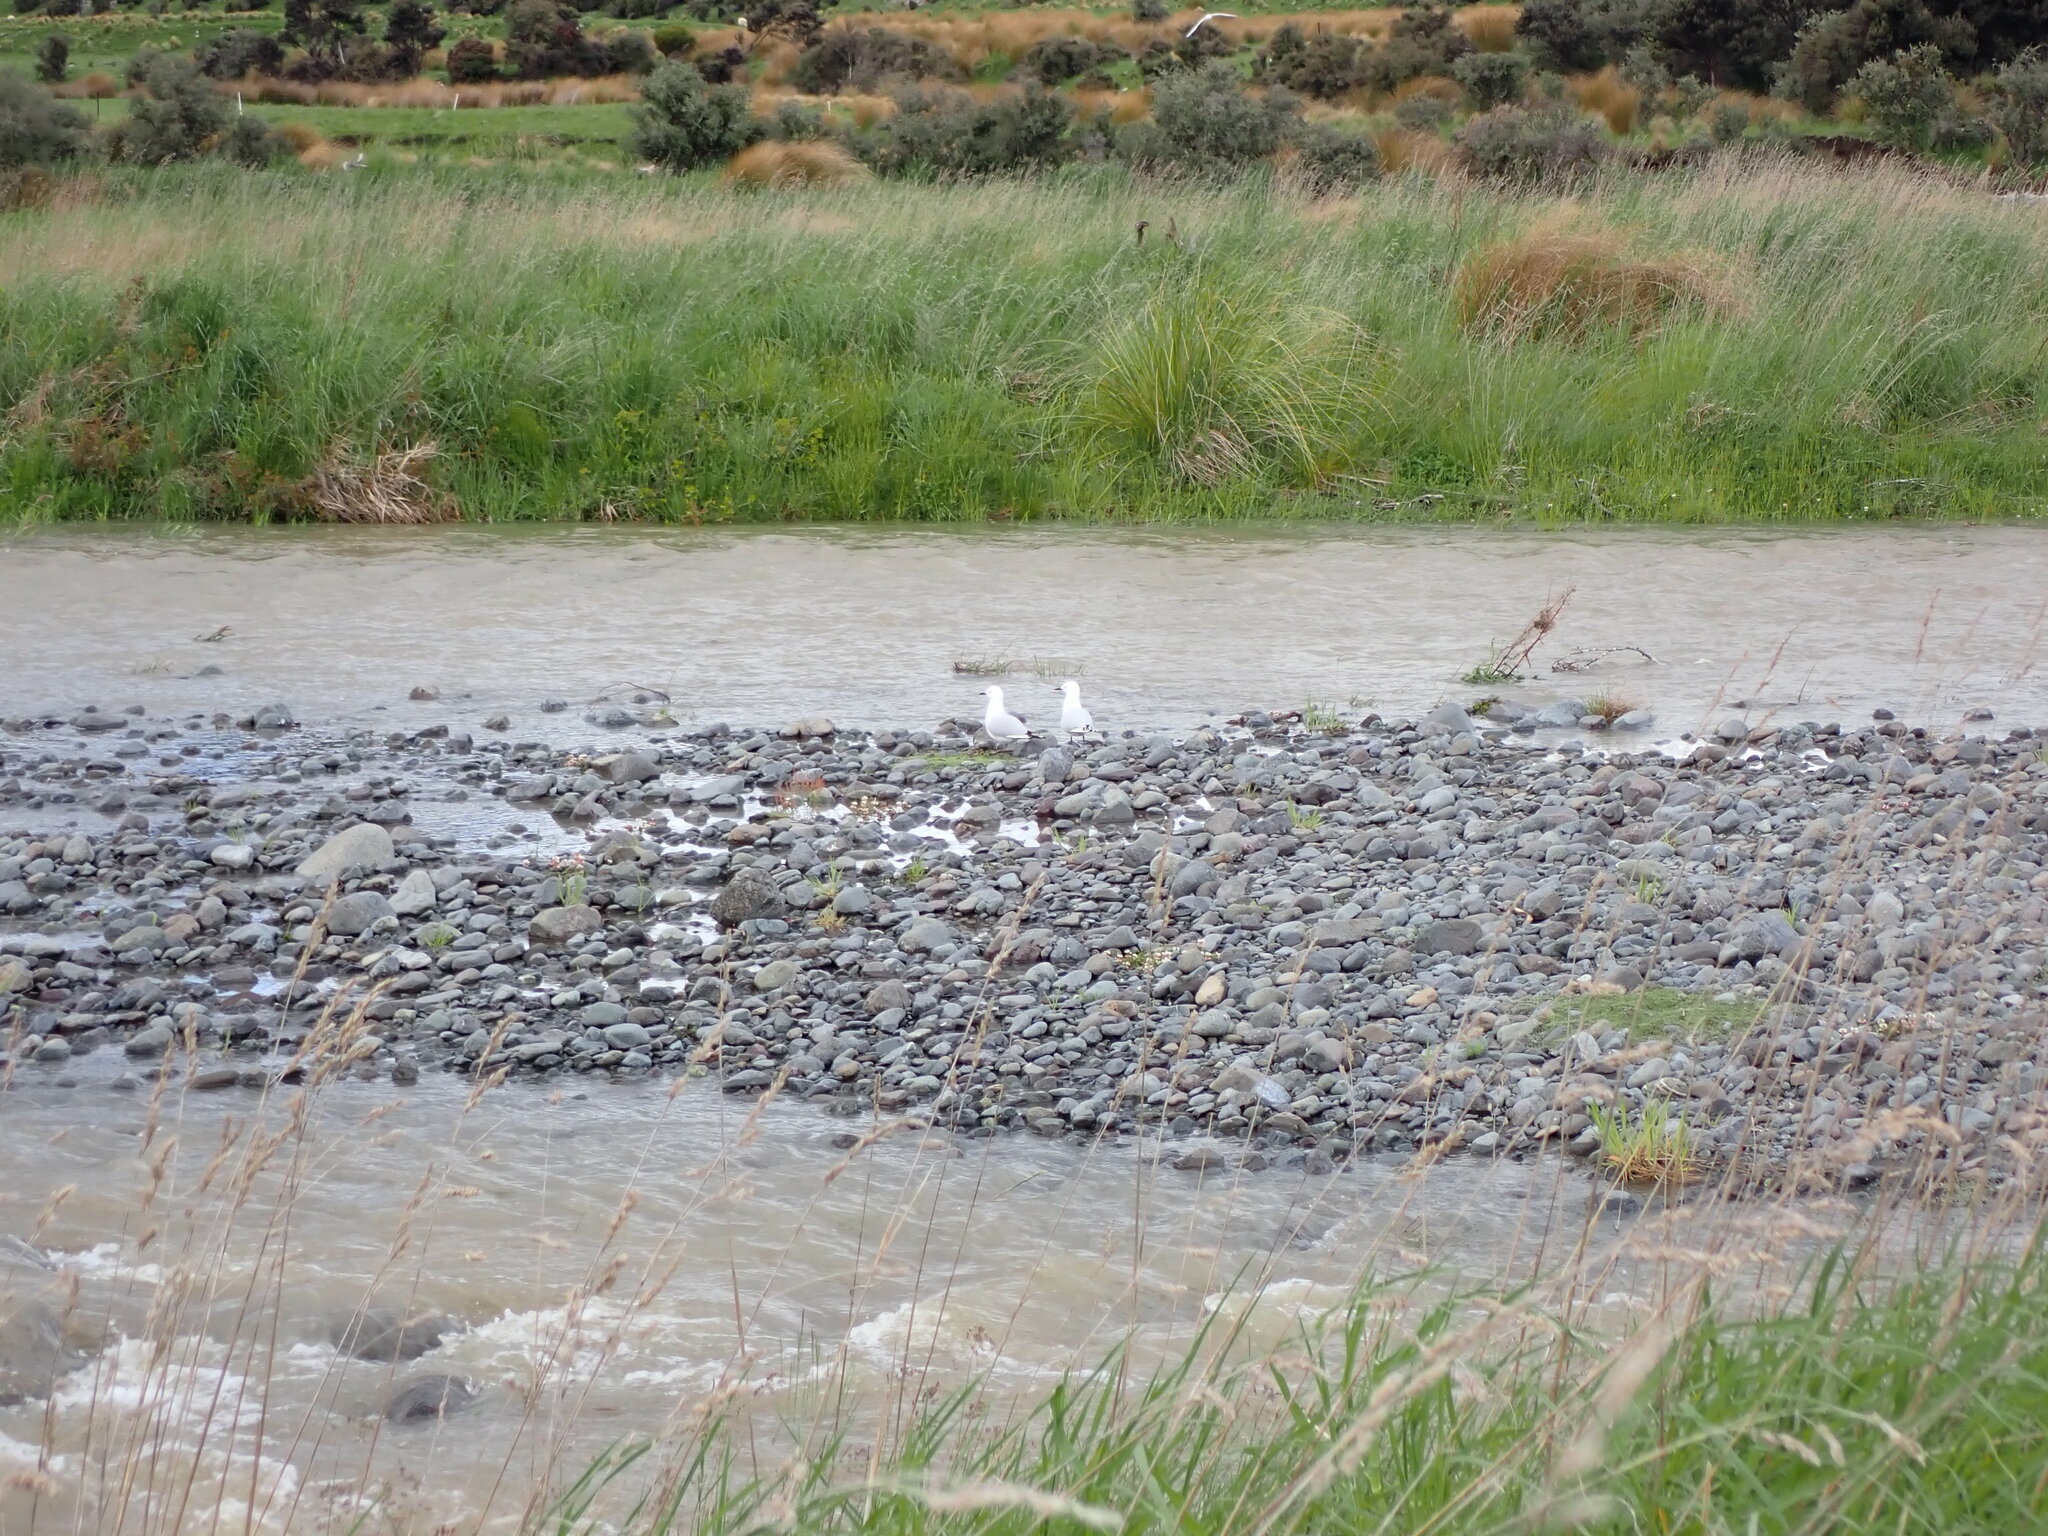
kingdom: Animalia
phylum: Chordata
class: Aves
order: Charadriiformes
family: Laridae
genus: Chroicocephalus
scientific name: Chroicocephalus bulleri
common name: Black-billed gull
